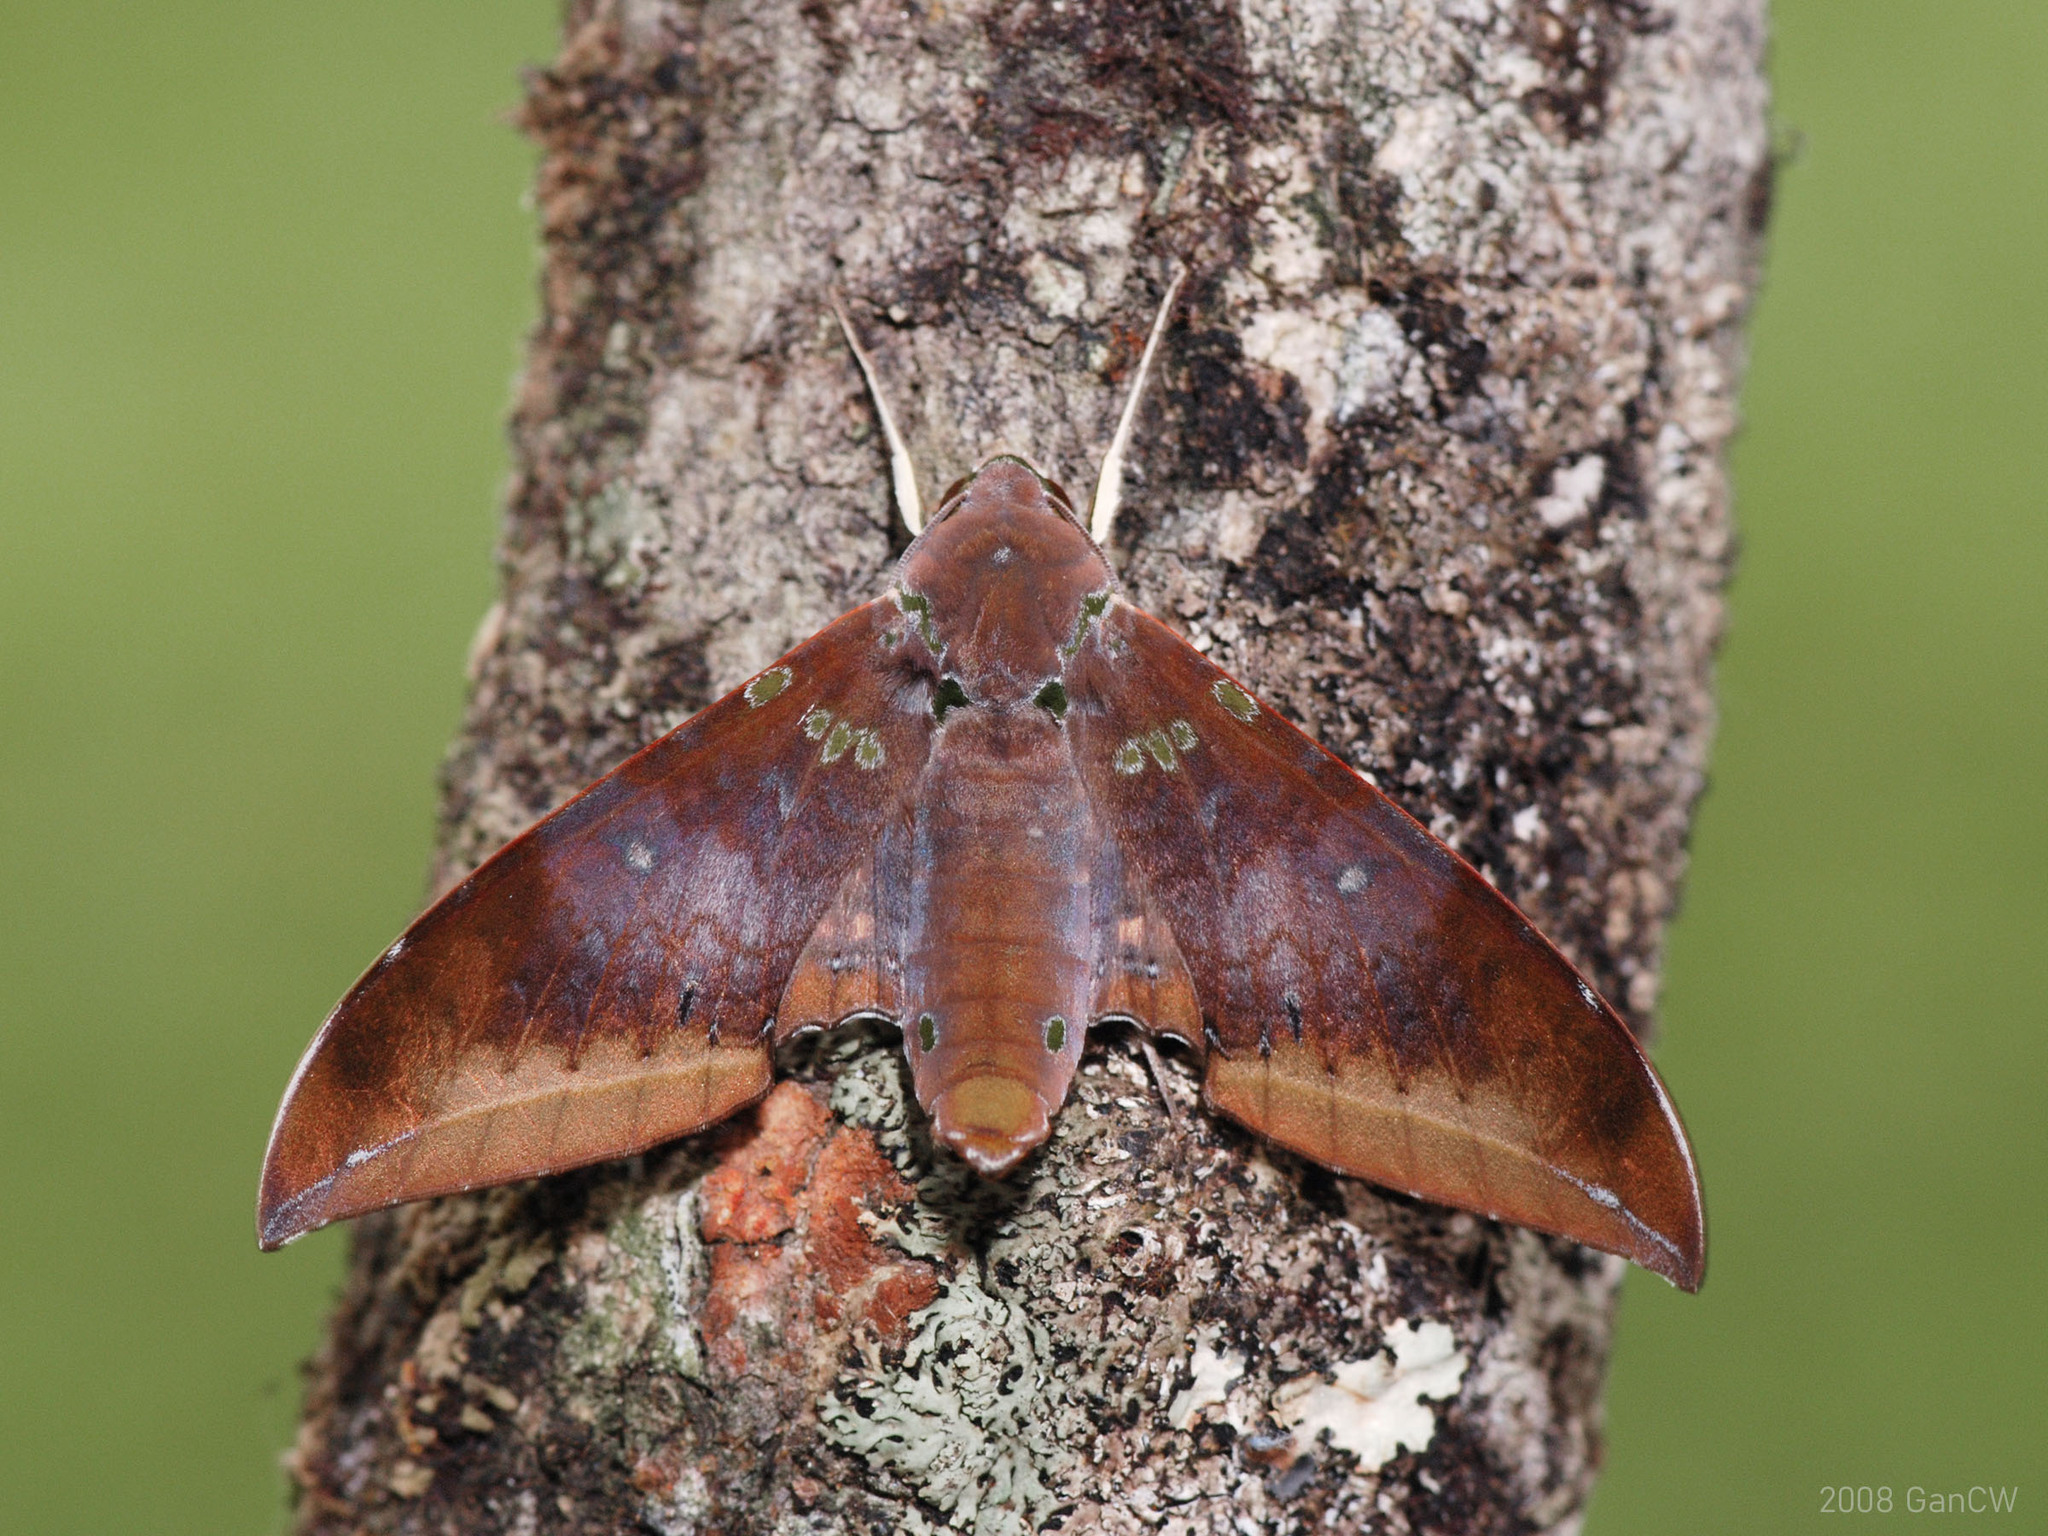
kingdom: Animalia
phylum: Arthropoda
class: Insecta
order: Lepidoptera
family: Sphingidae
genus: Ambulyx
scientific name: Ambulyx moorei
